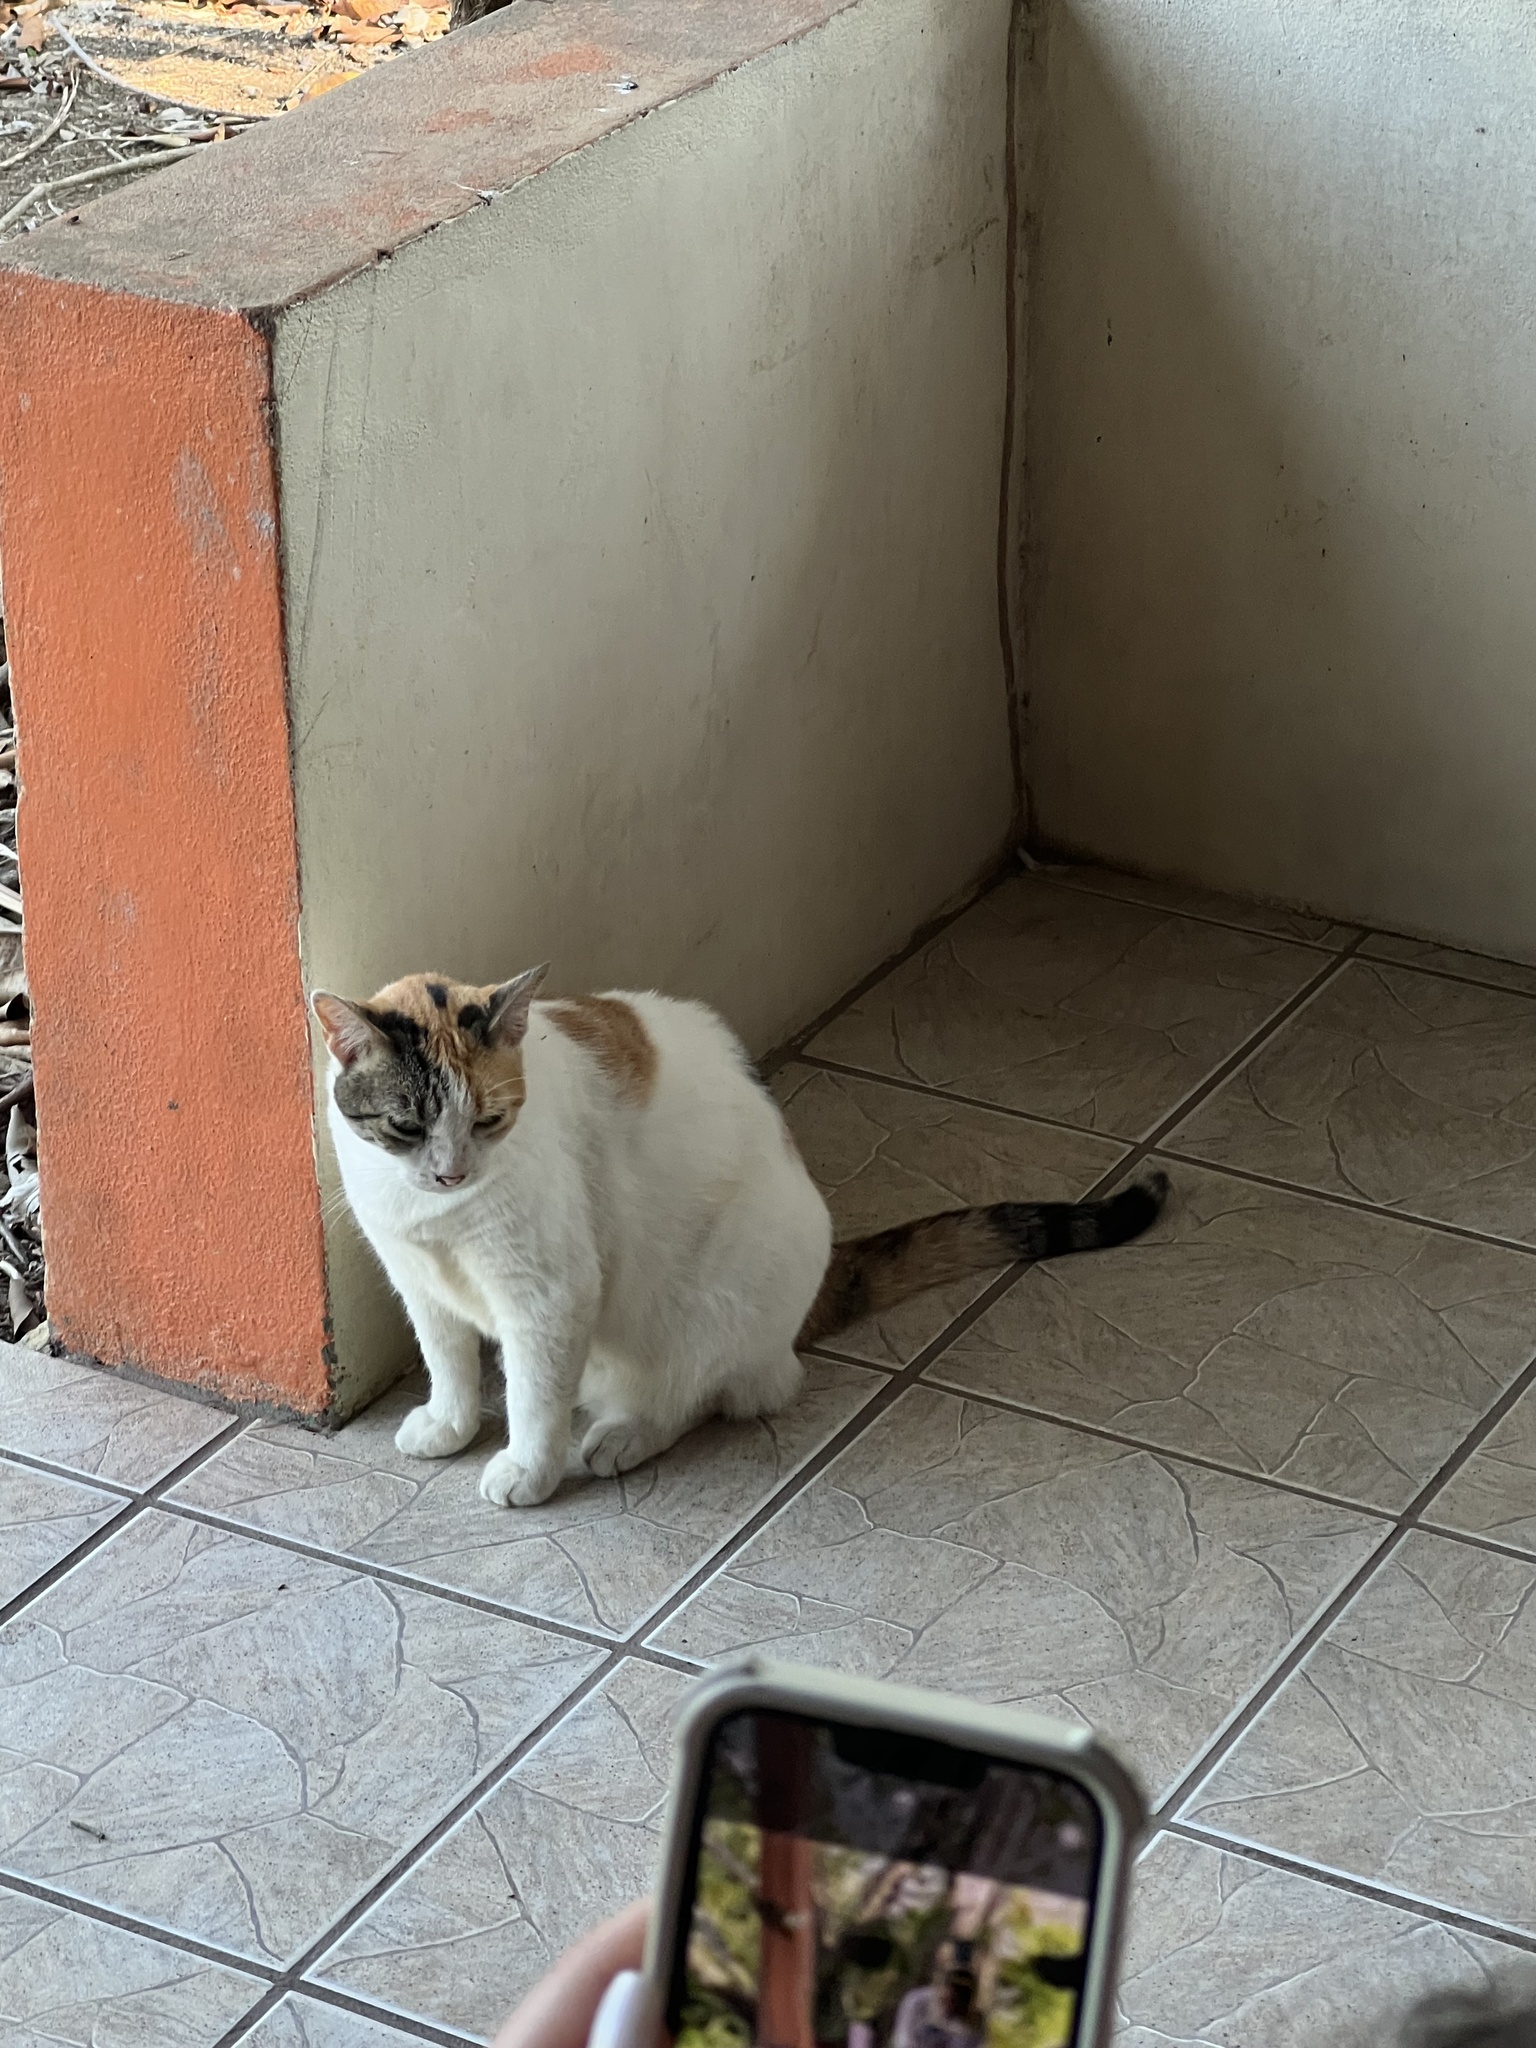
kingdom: Animalia
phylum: Chordata
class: Mammalia
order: Carnivora
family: Felidae
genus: Felis
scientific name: Felis catus
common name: Domestic cat
